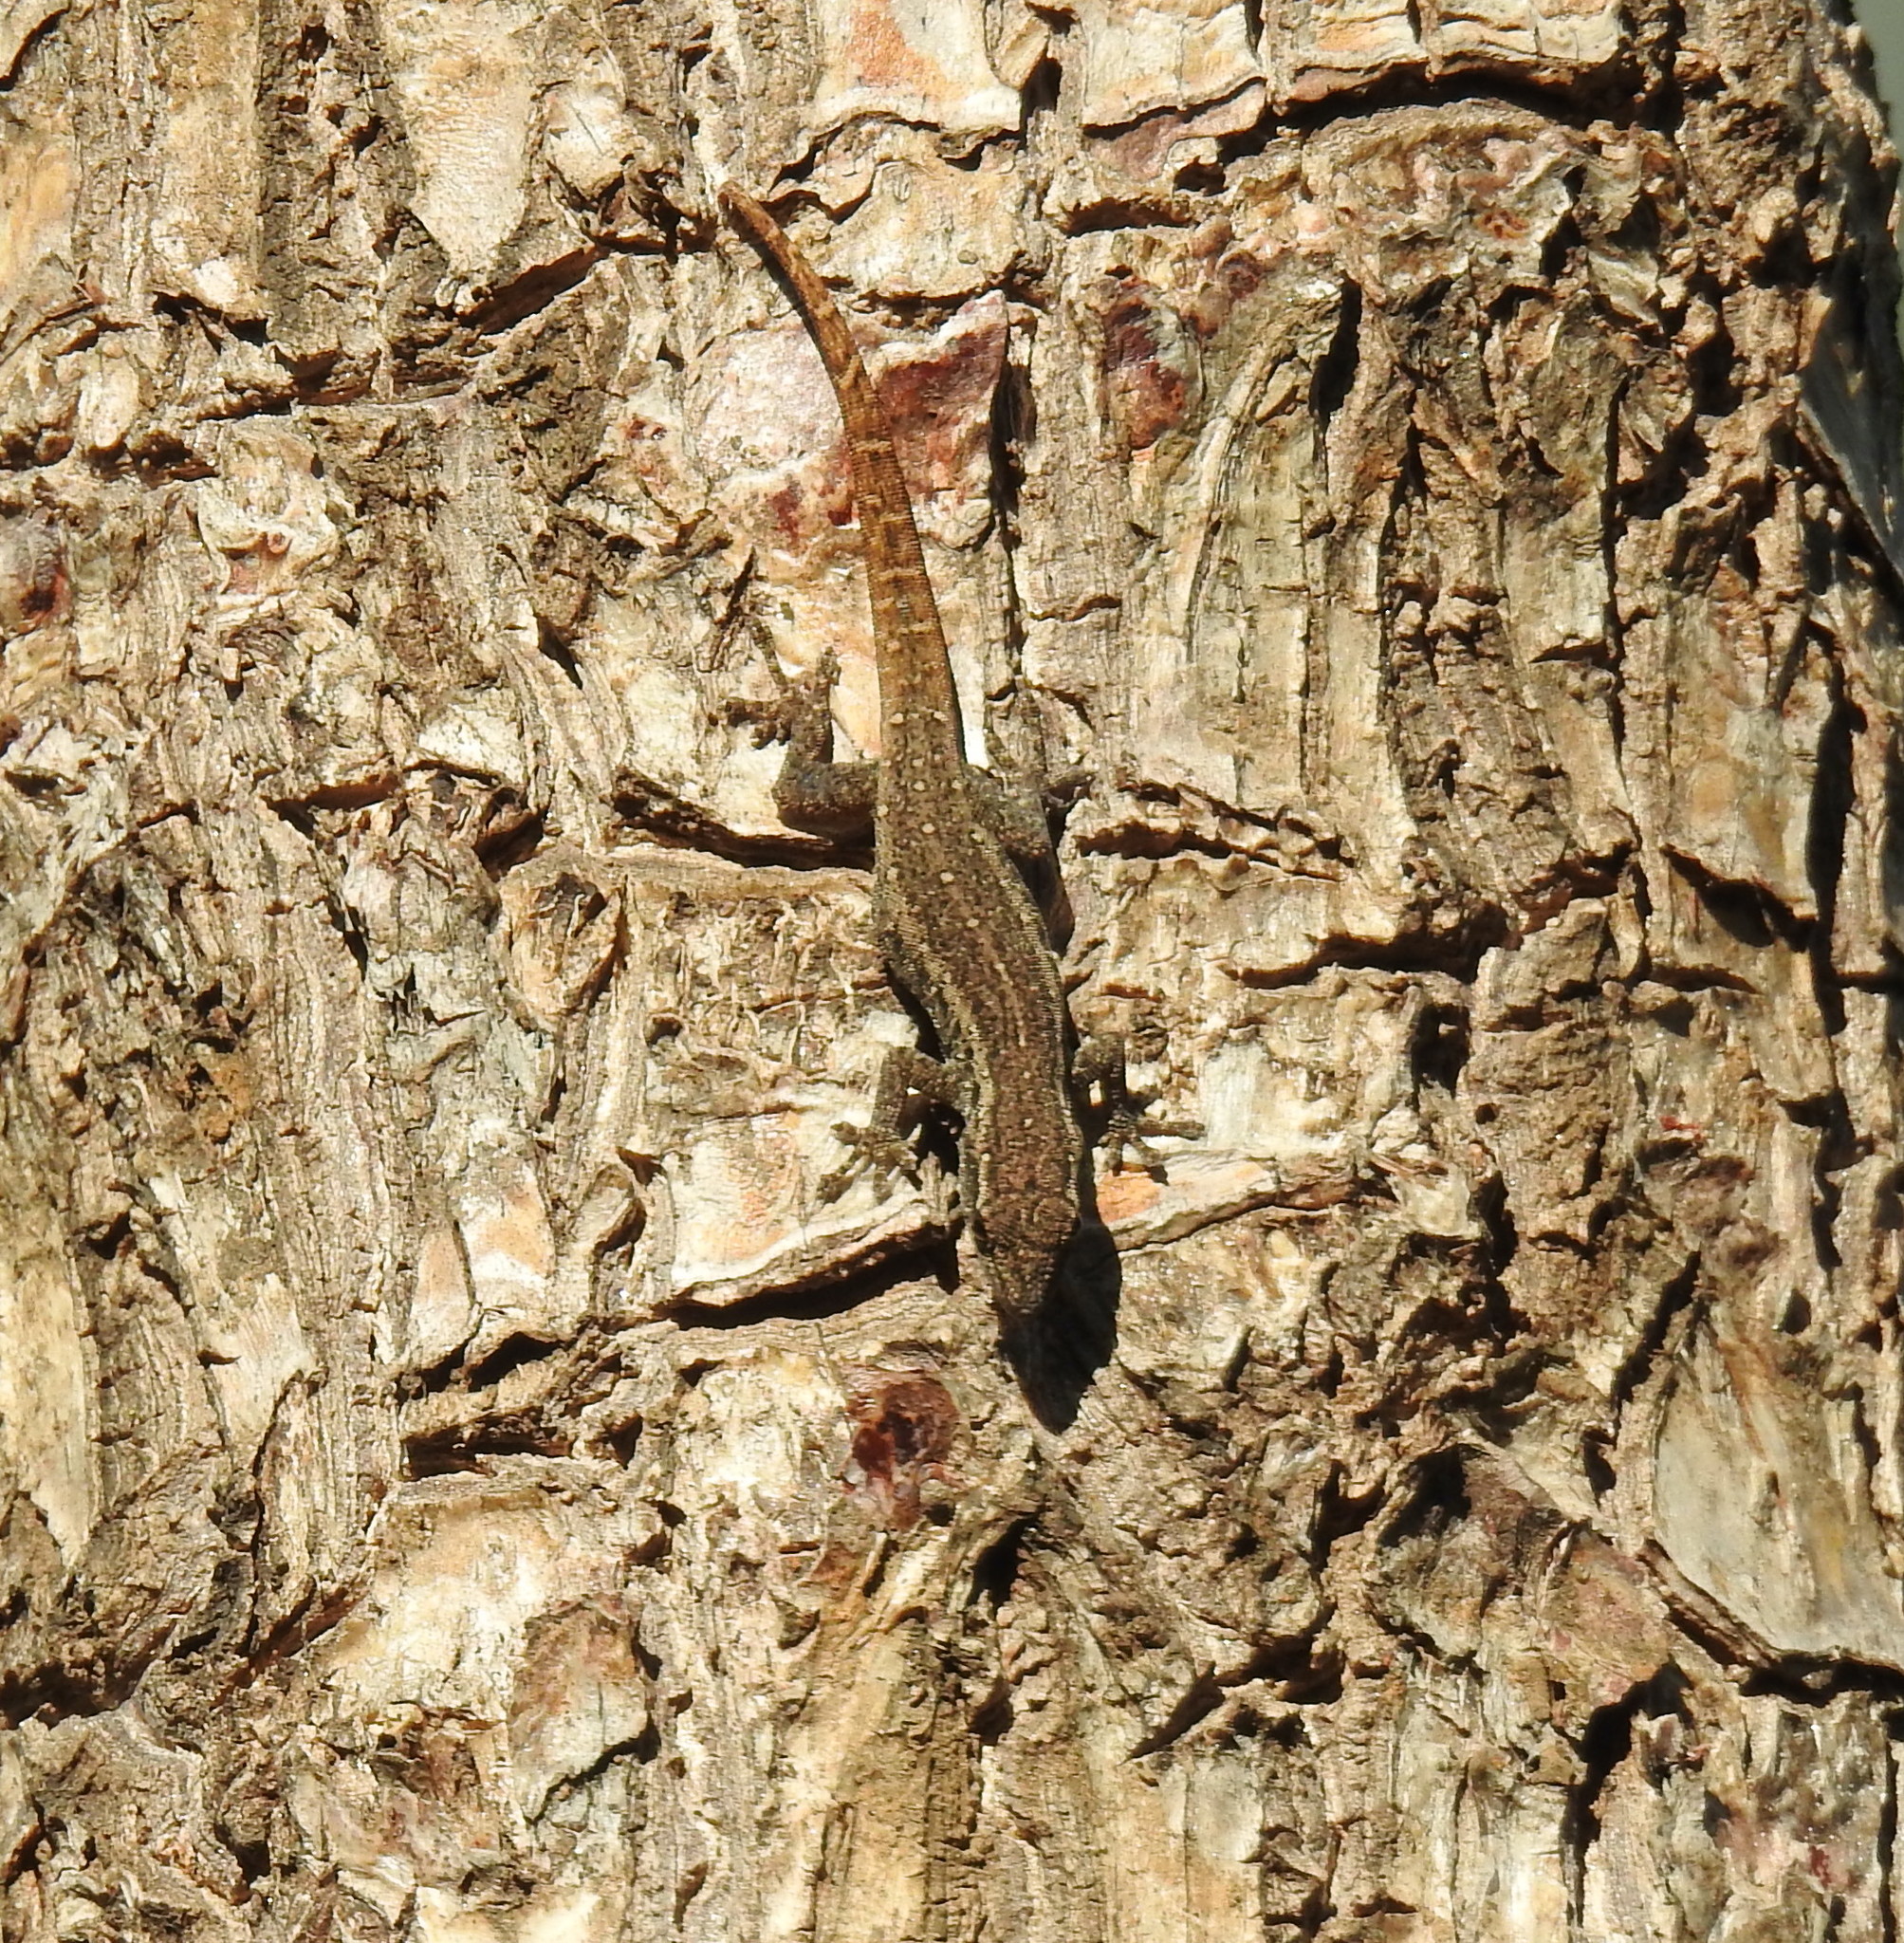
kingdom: Animalia
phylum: Chordata
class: Squamata
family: Gekkonidae
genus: Lygodactylus
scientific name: Lygodactylus capensis
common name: Cape dwarf gecko
